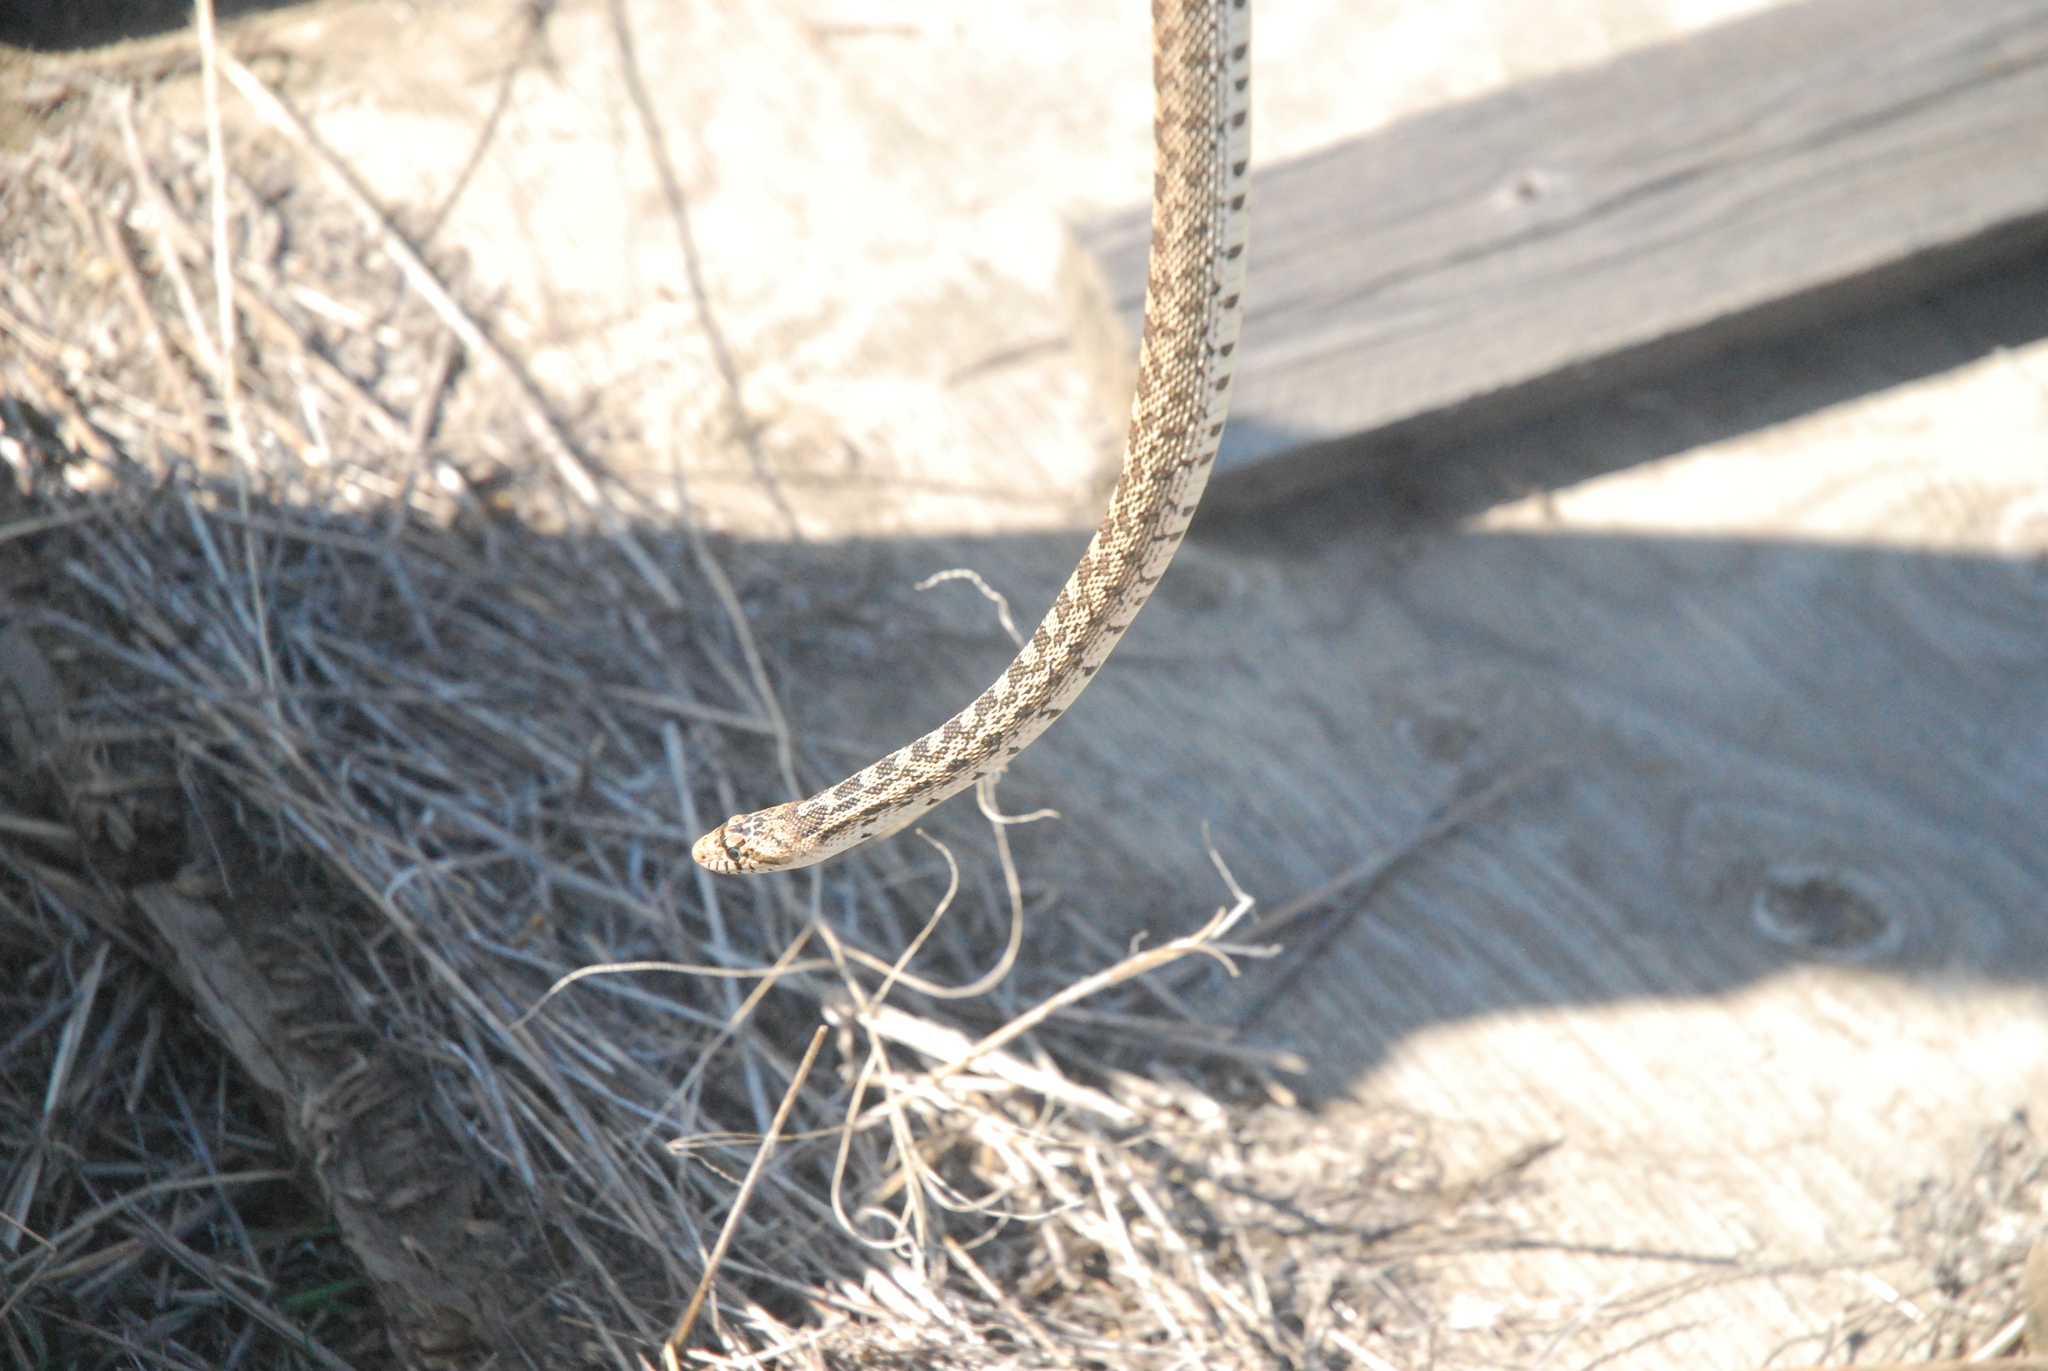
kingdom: Animalia
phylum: Chordata
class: Squamata
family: Colubridae
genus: Pituophis
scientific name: Pituophis catenifer
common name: Gopher snake
